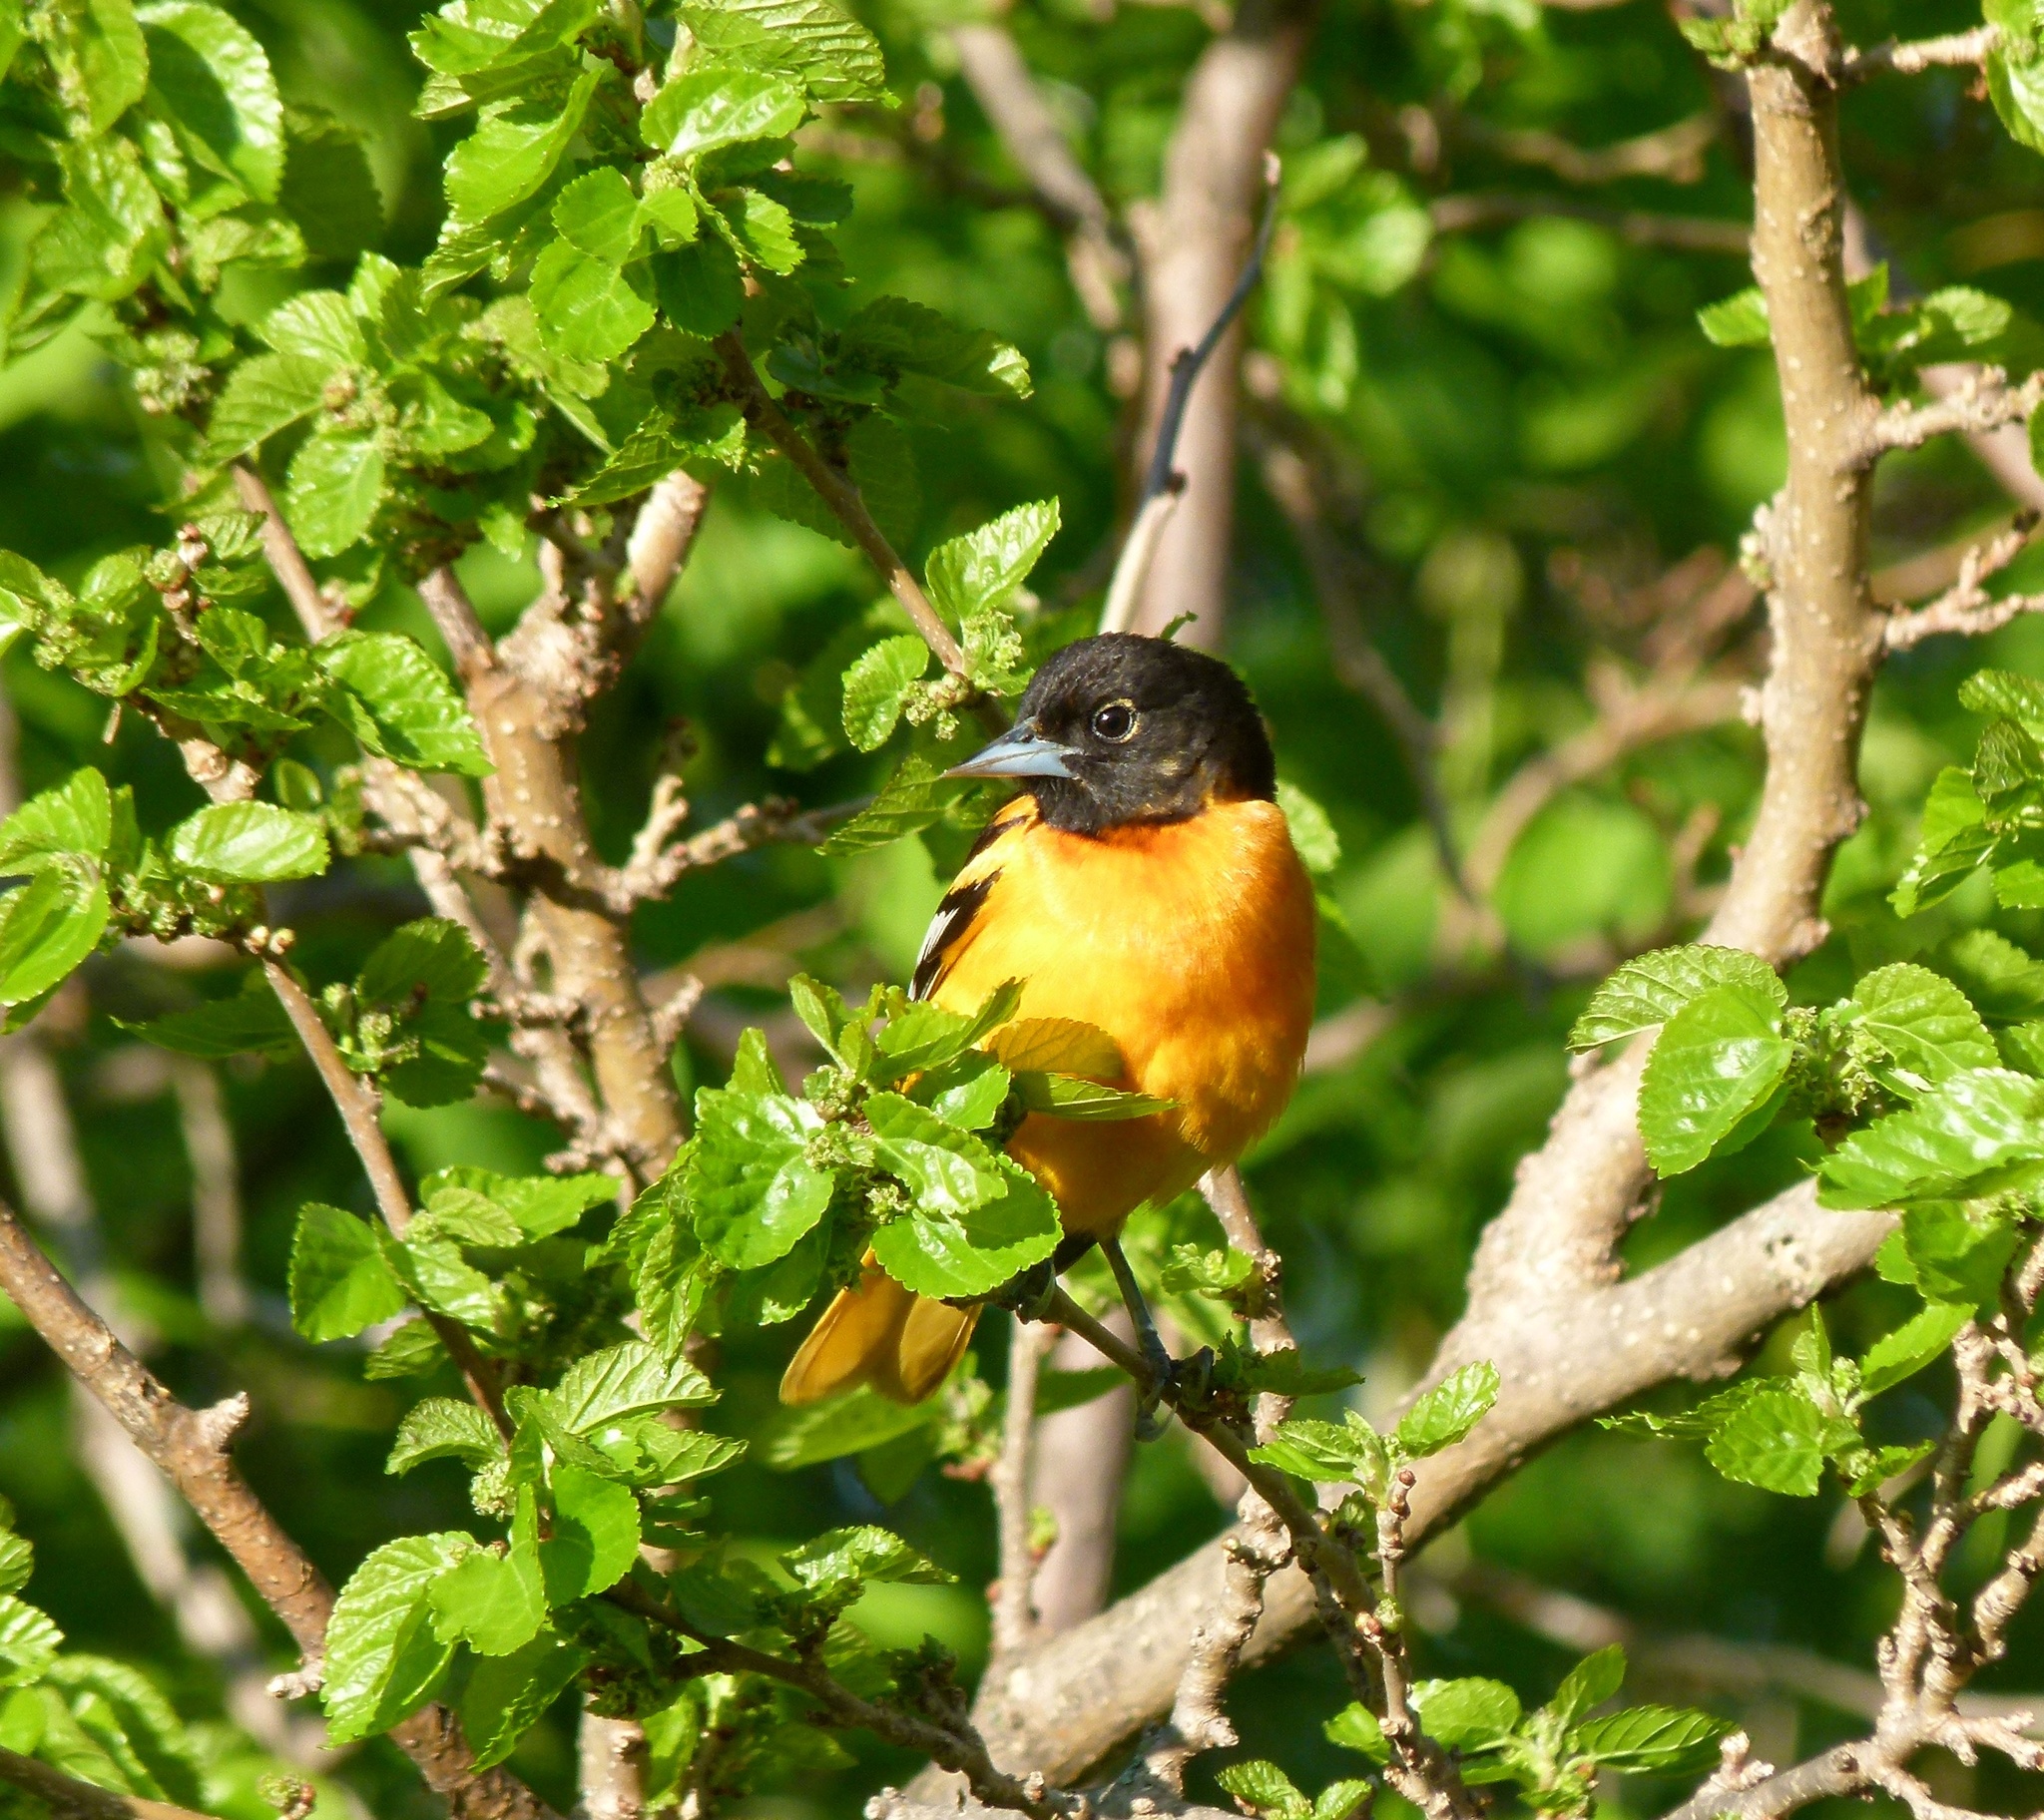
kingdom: Animalia
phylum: Chordata
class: Aves
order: Passeriformes
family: Icteridae
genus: Icterus
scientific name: Icterus galbula
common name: Baltimore oriole
